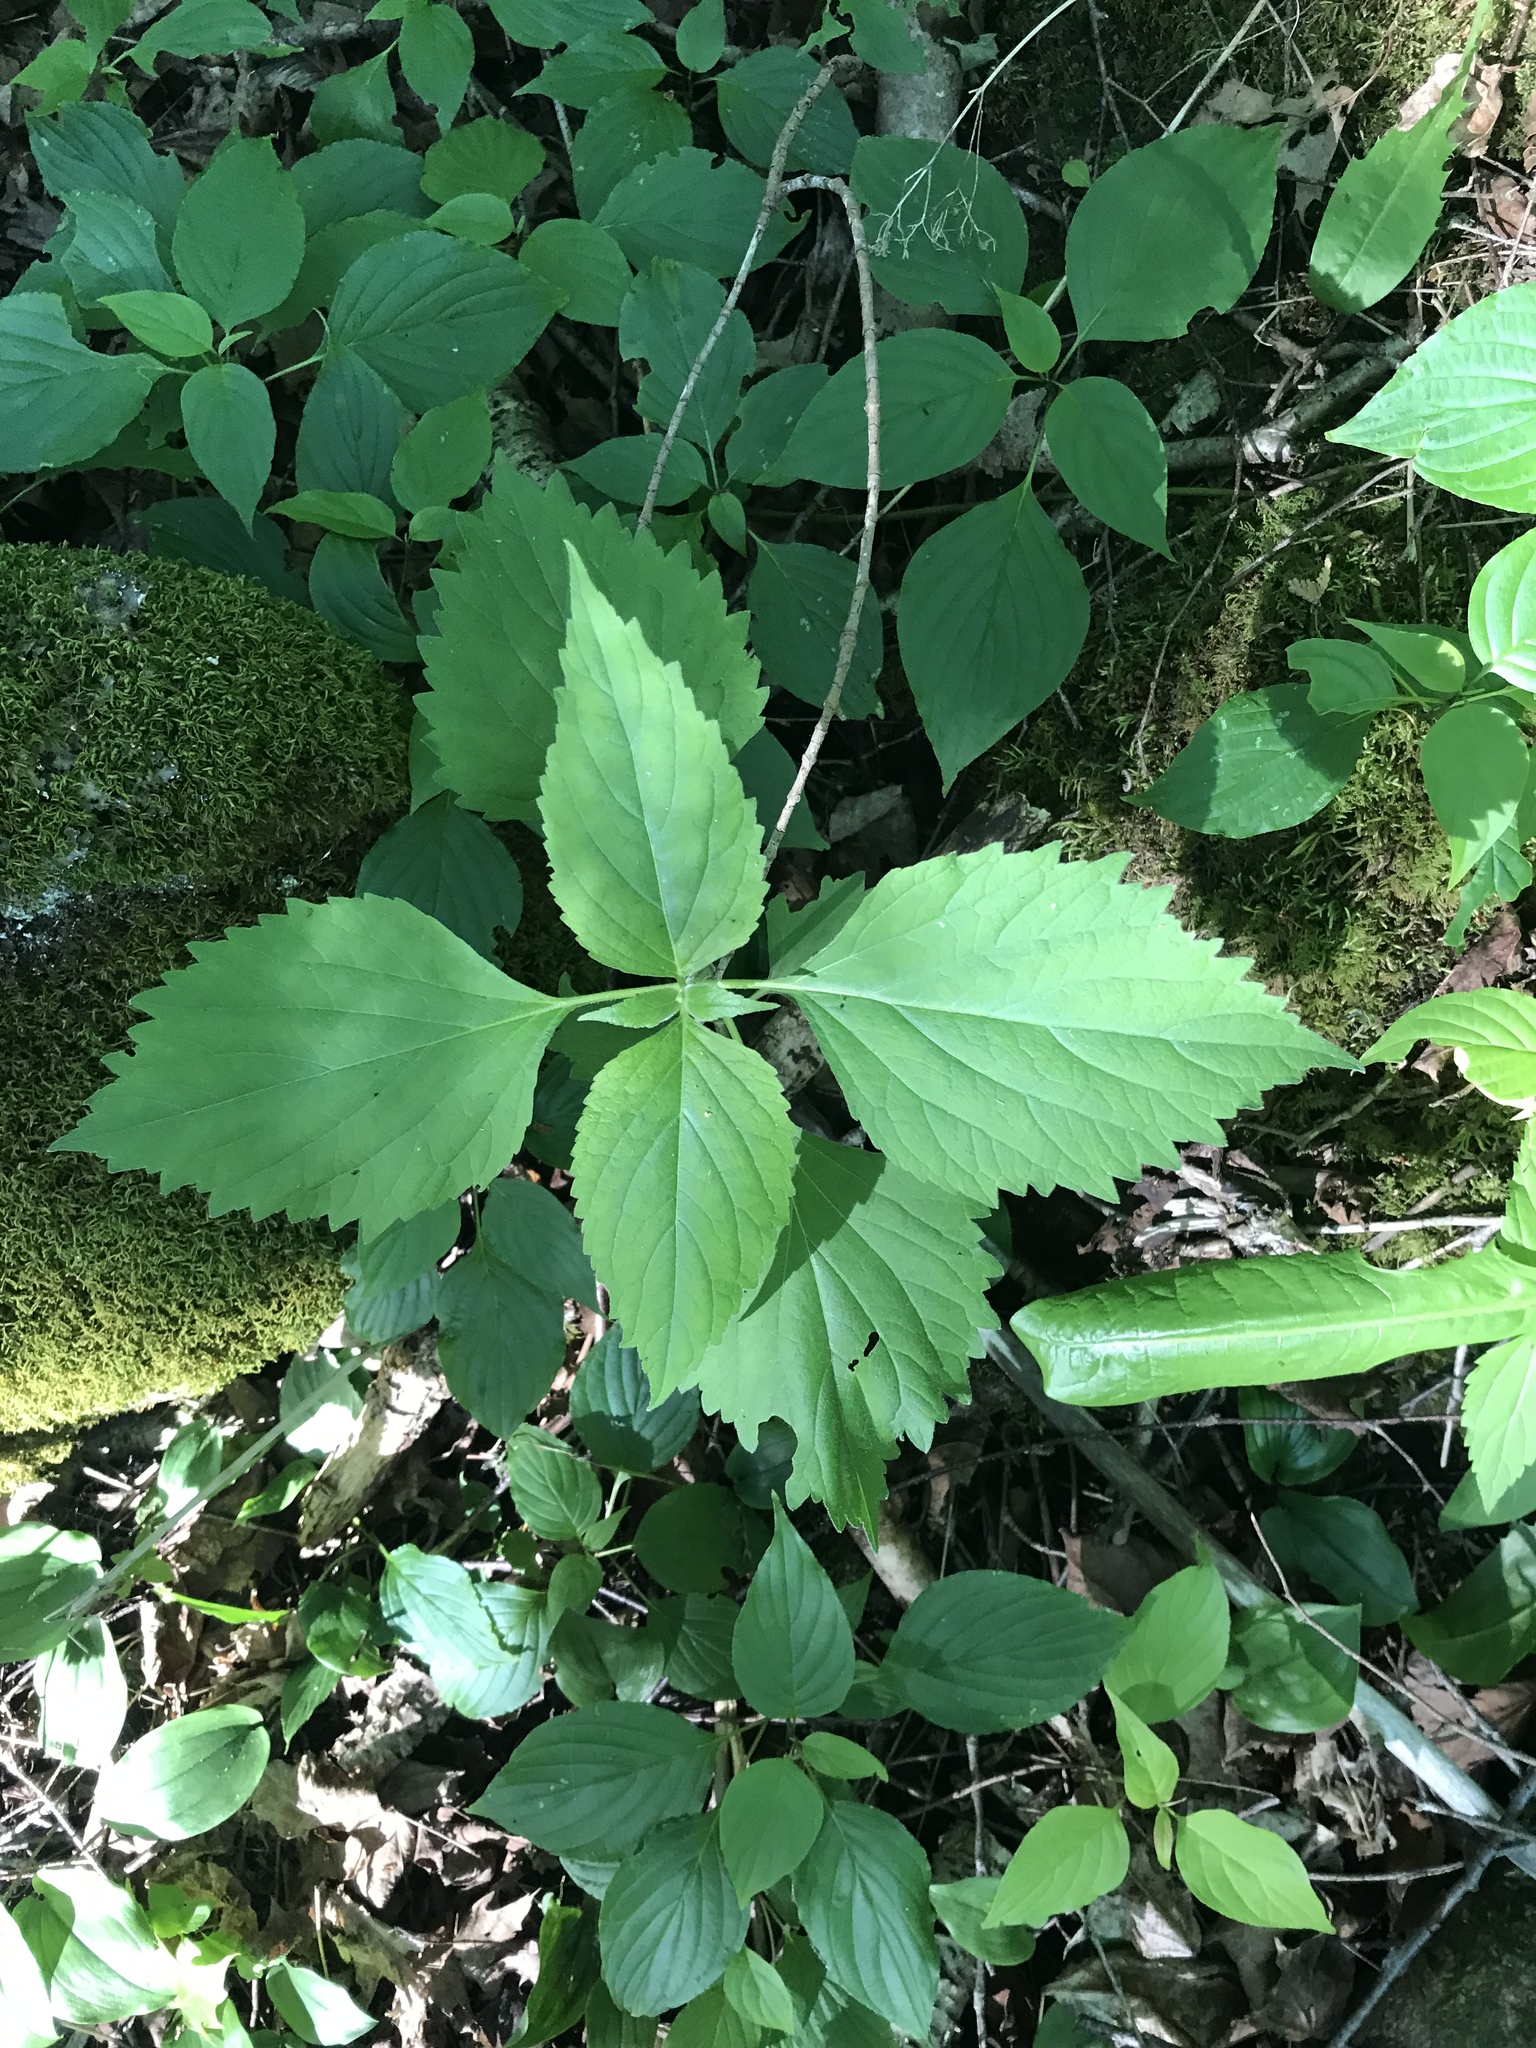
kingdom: Plantae
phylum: Tracheophyta
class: Magnoliopsida
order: Lamiales
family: Phrymaceae
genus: Phryma
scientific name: Phryma leptostachya
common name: American lopseed
